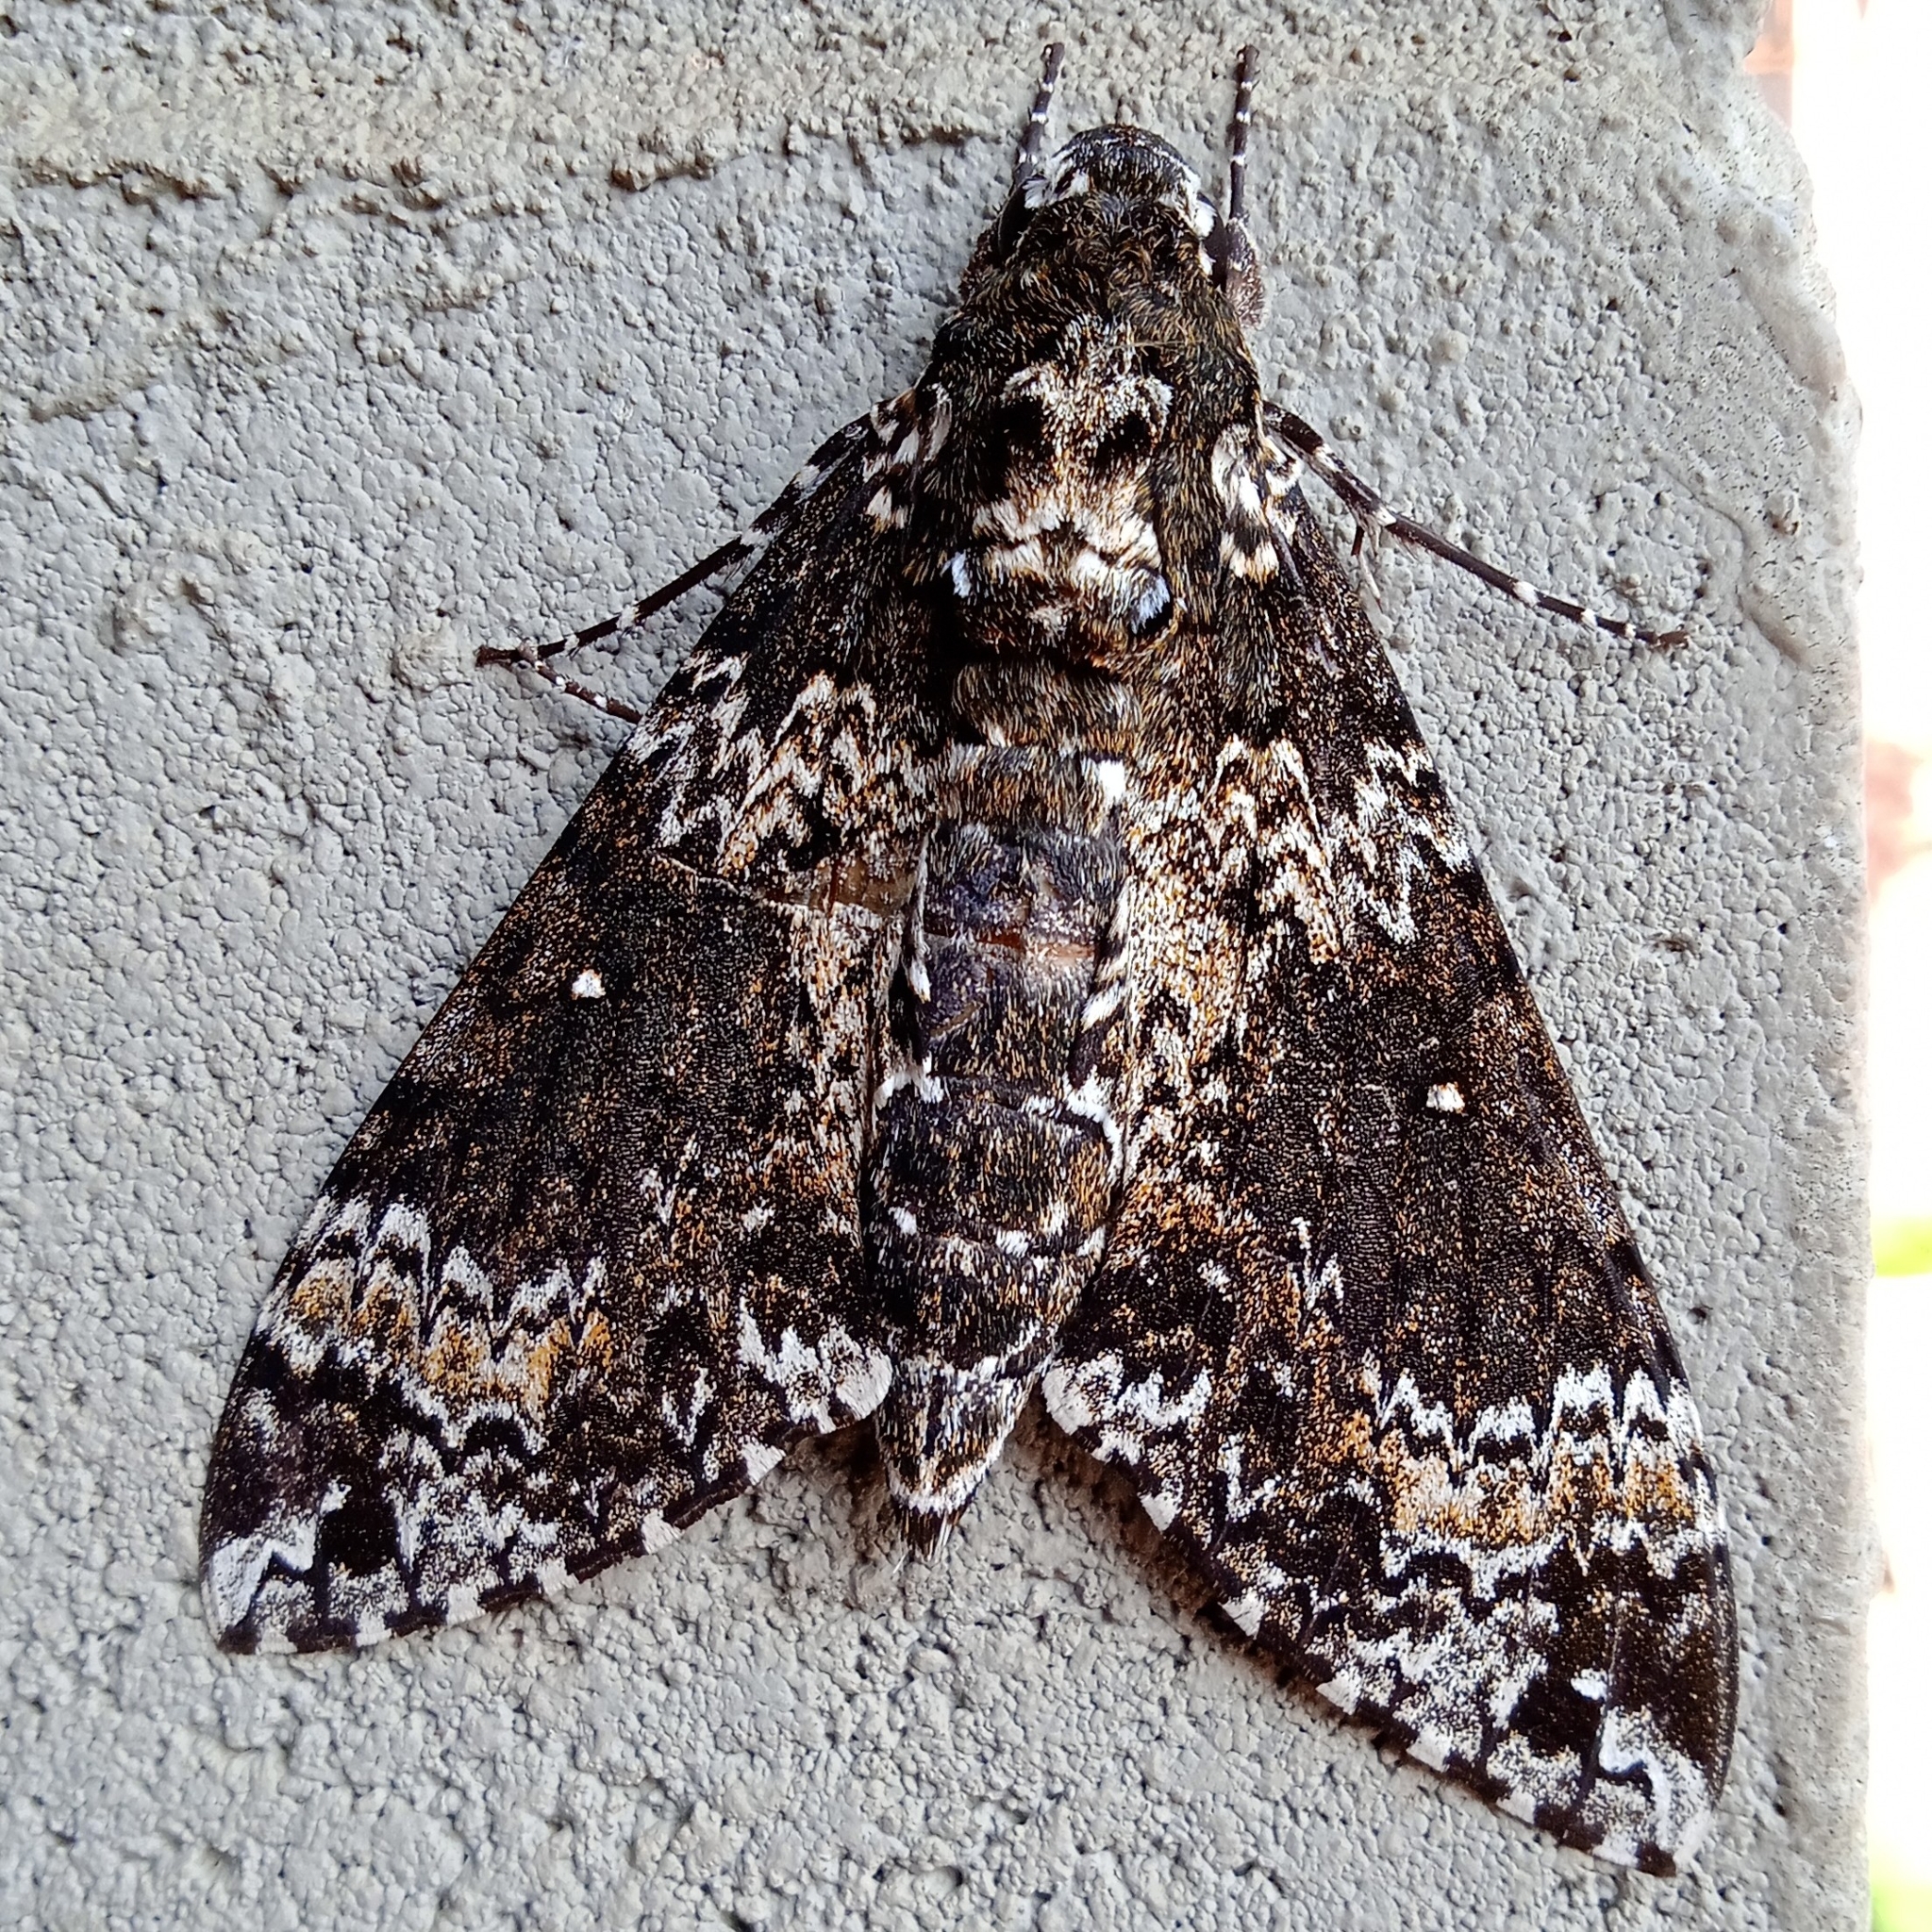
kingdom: Animalia
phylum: Arthropoda
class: Insecta
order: Lepidoptera
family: Sphingidae
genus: Manduca
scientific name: Manduca rustica
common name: Rustic sphinx
